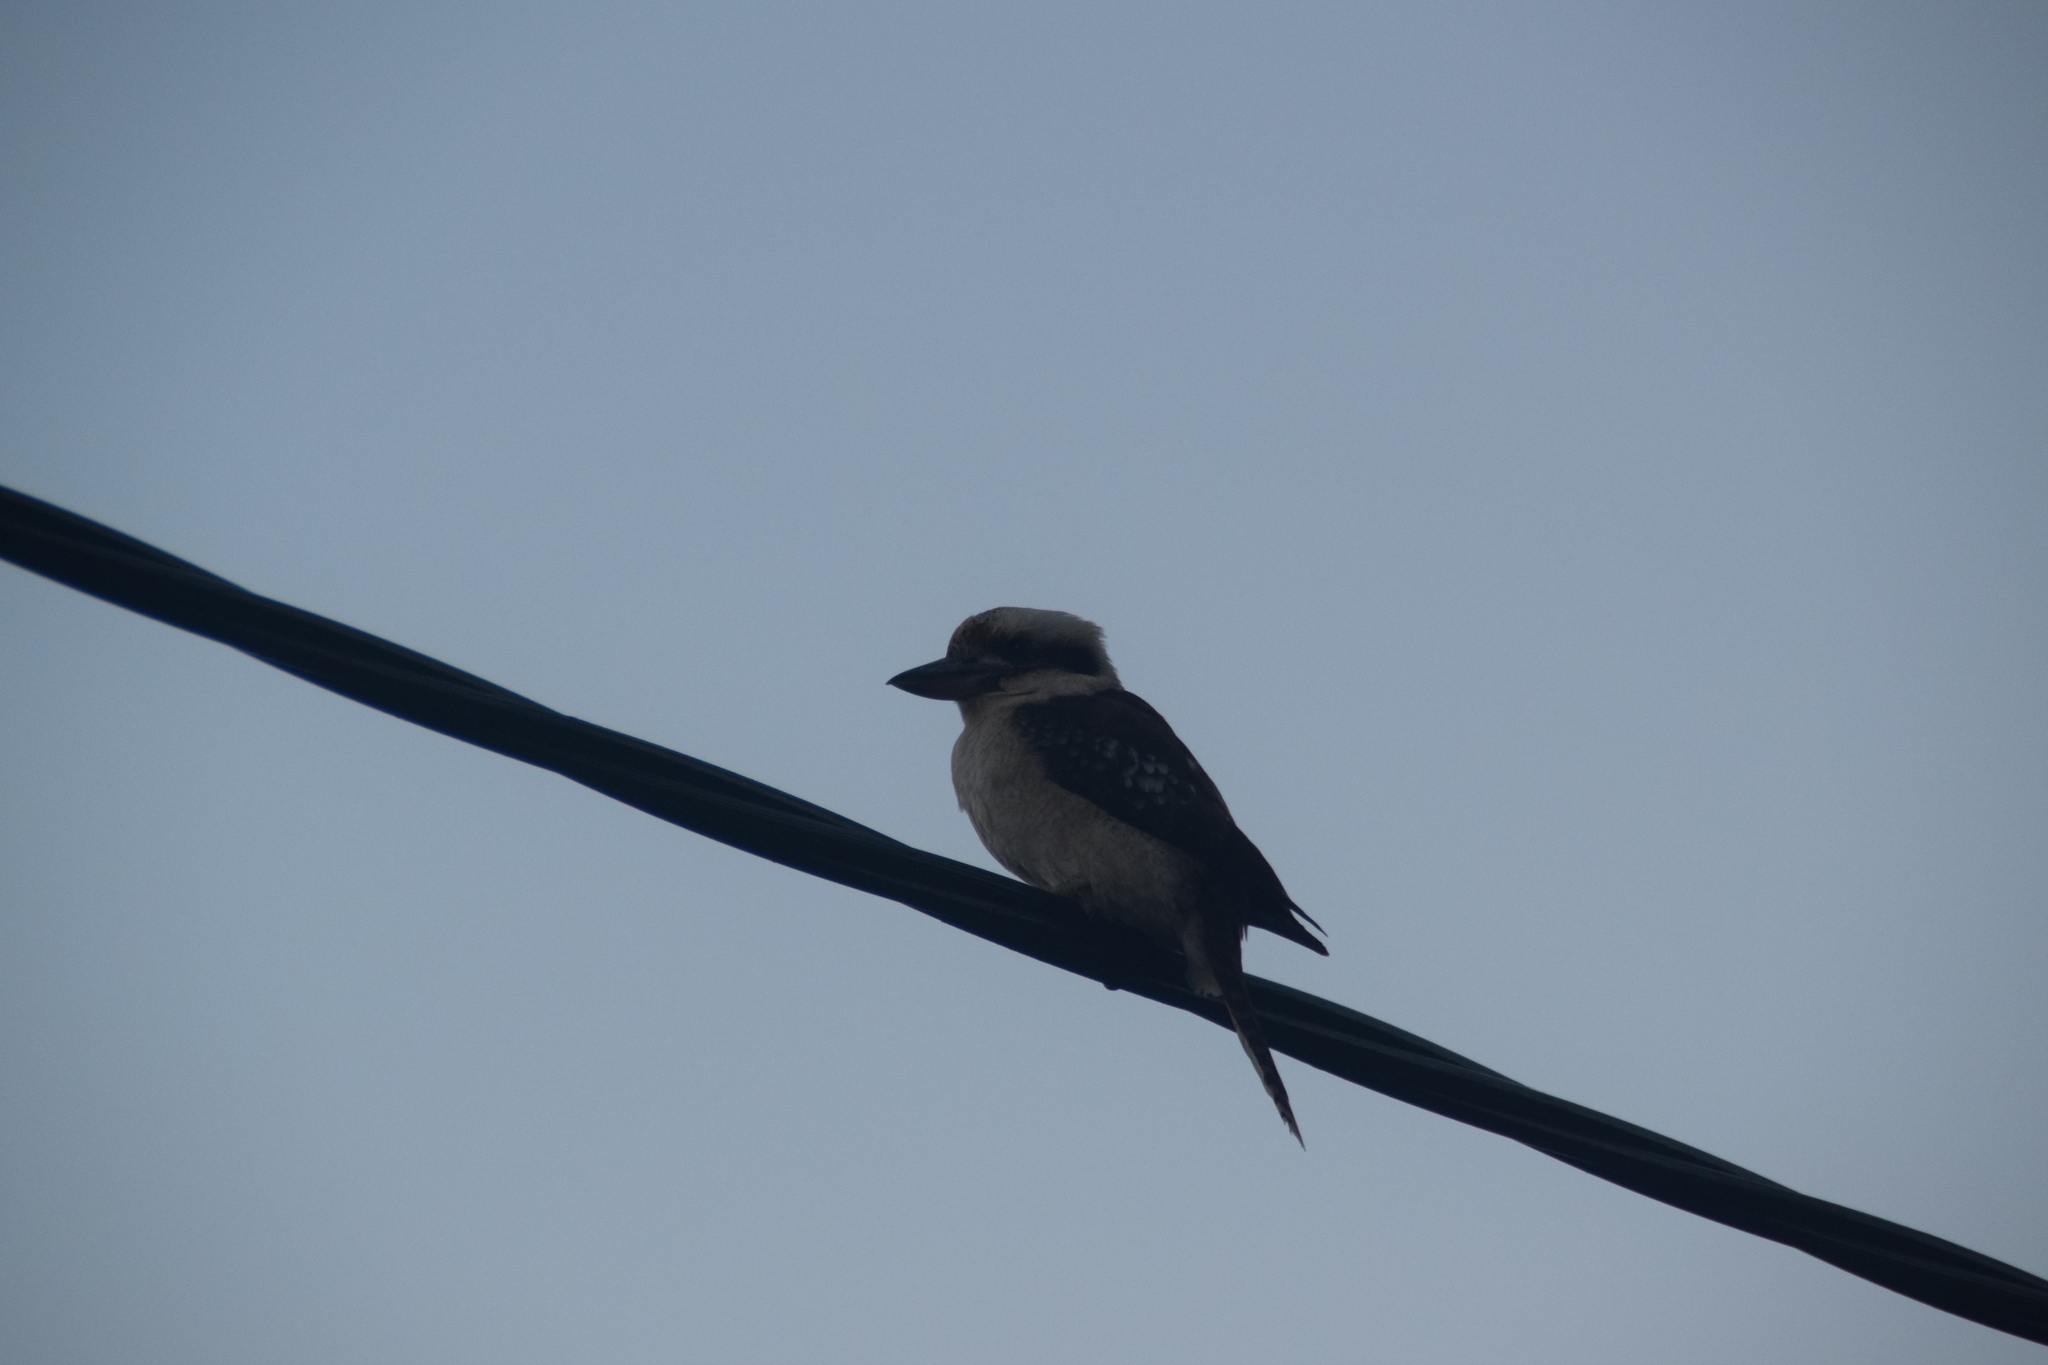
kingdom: Animalia
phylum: Chordata
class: Aves
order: Coraciiformes
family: Alcedinidae
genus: Dacelo
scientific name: Dacelo novaeguineae
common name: Laughing kookaburra
